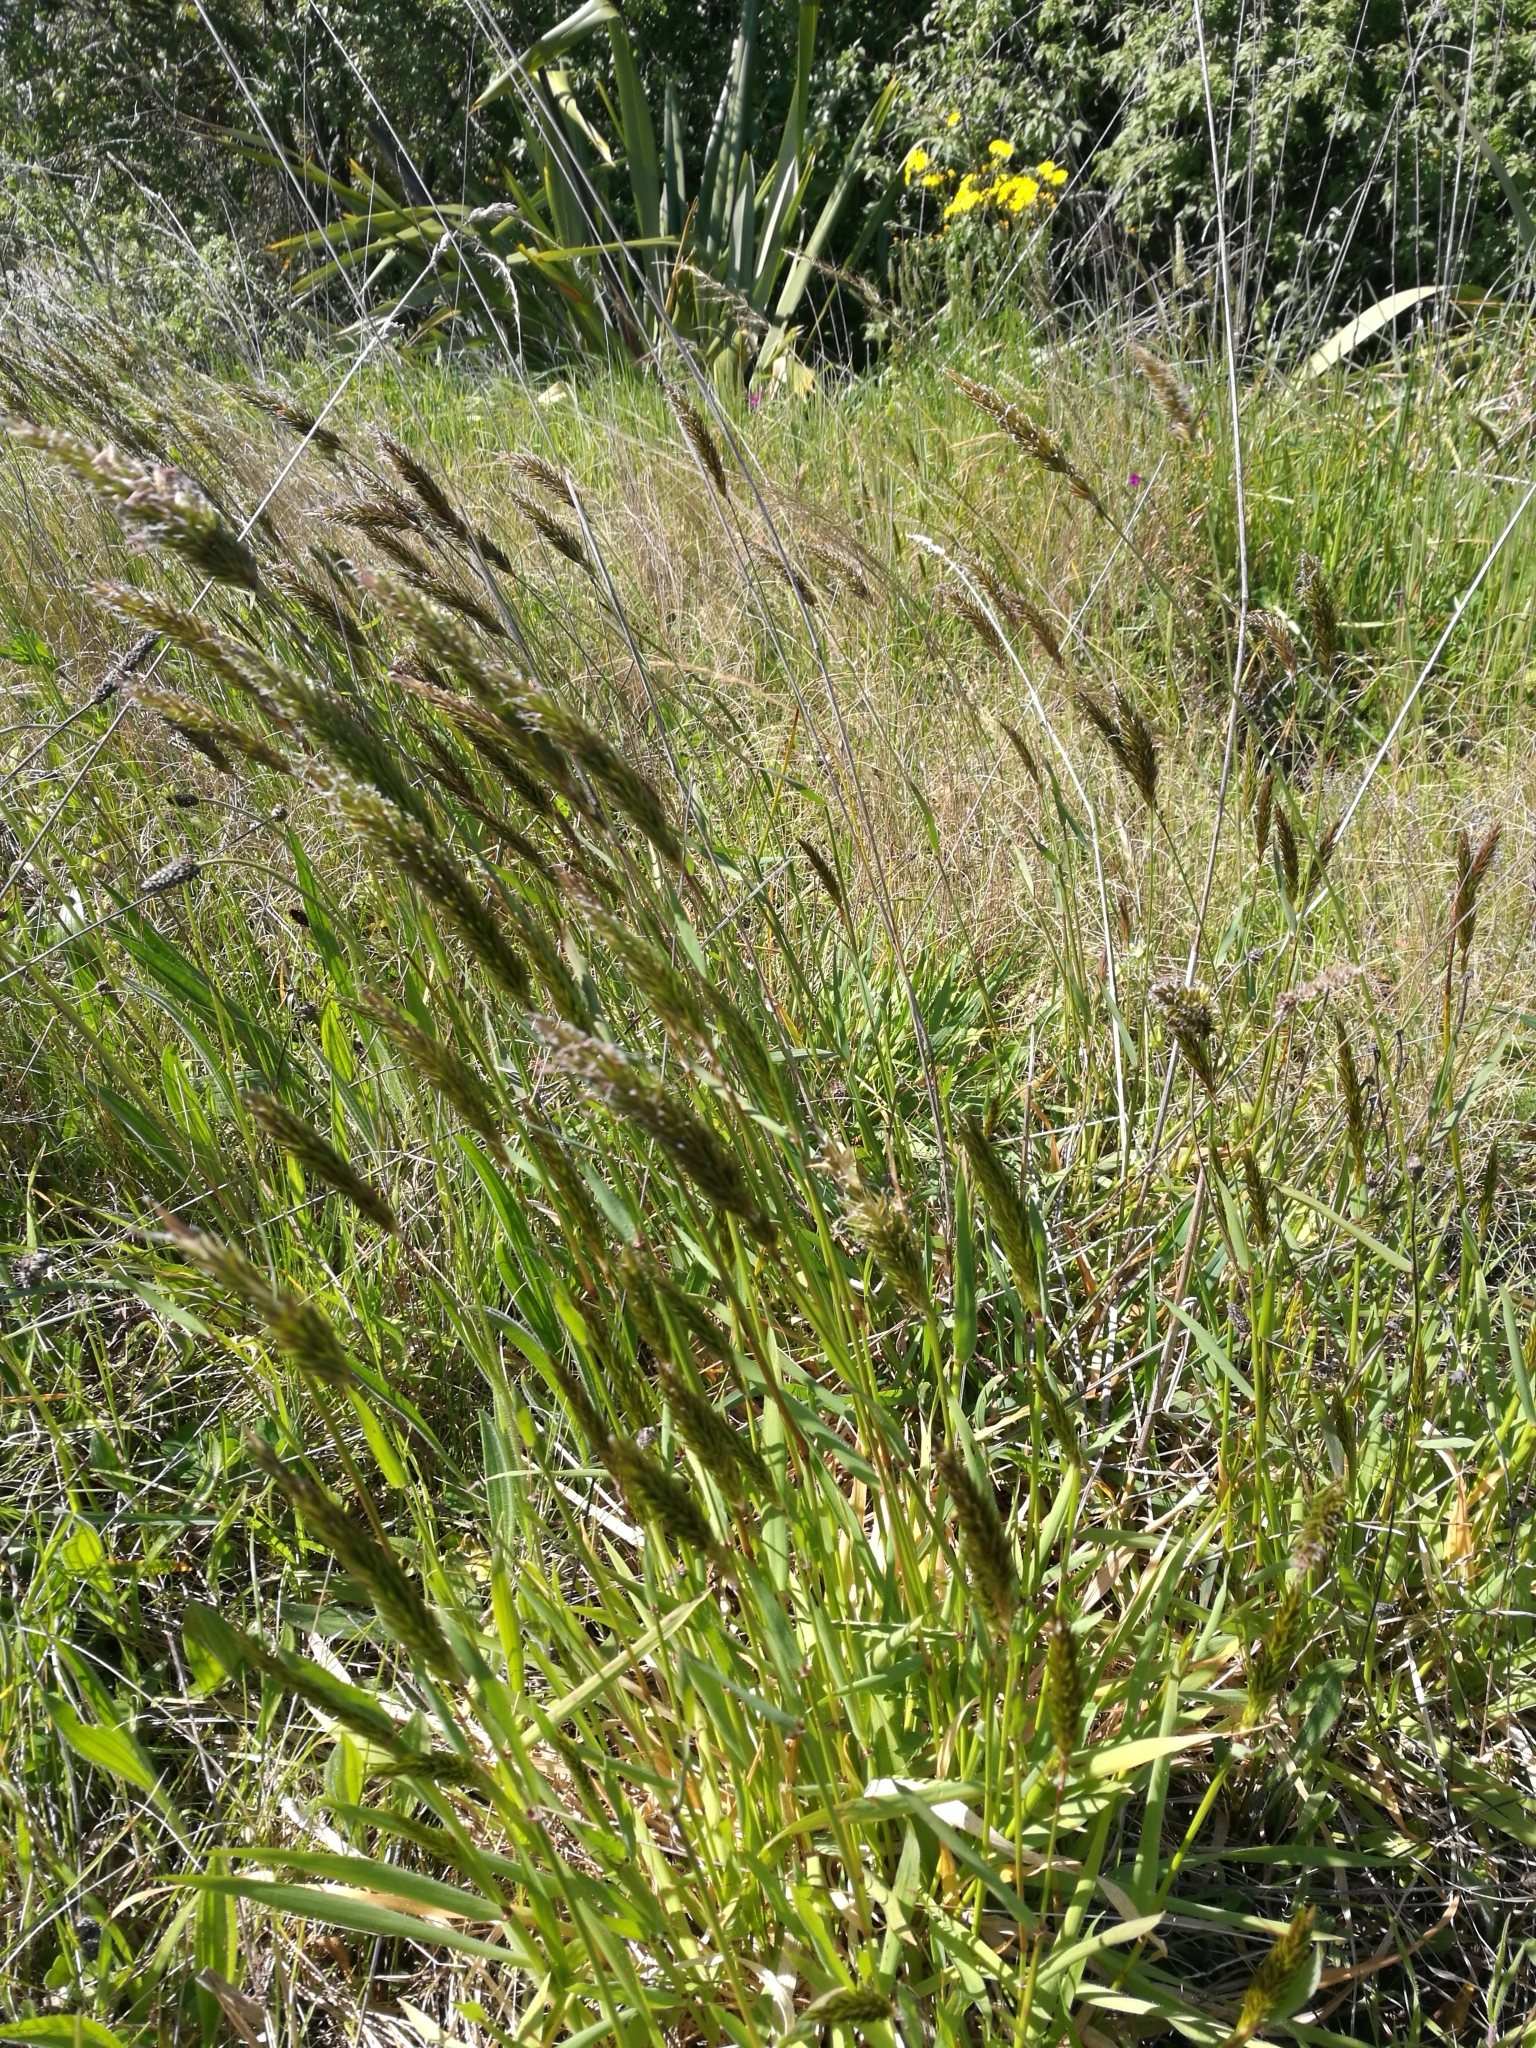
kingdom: Plantae
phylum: Tracheophyta
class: Liliopsida
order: Poales
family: Poaceae
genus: Anthoxanthum
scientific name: Anthoxanthum odoratum
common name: Sweet vernalgrass
